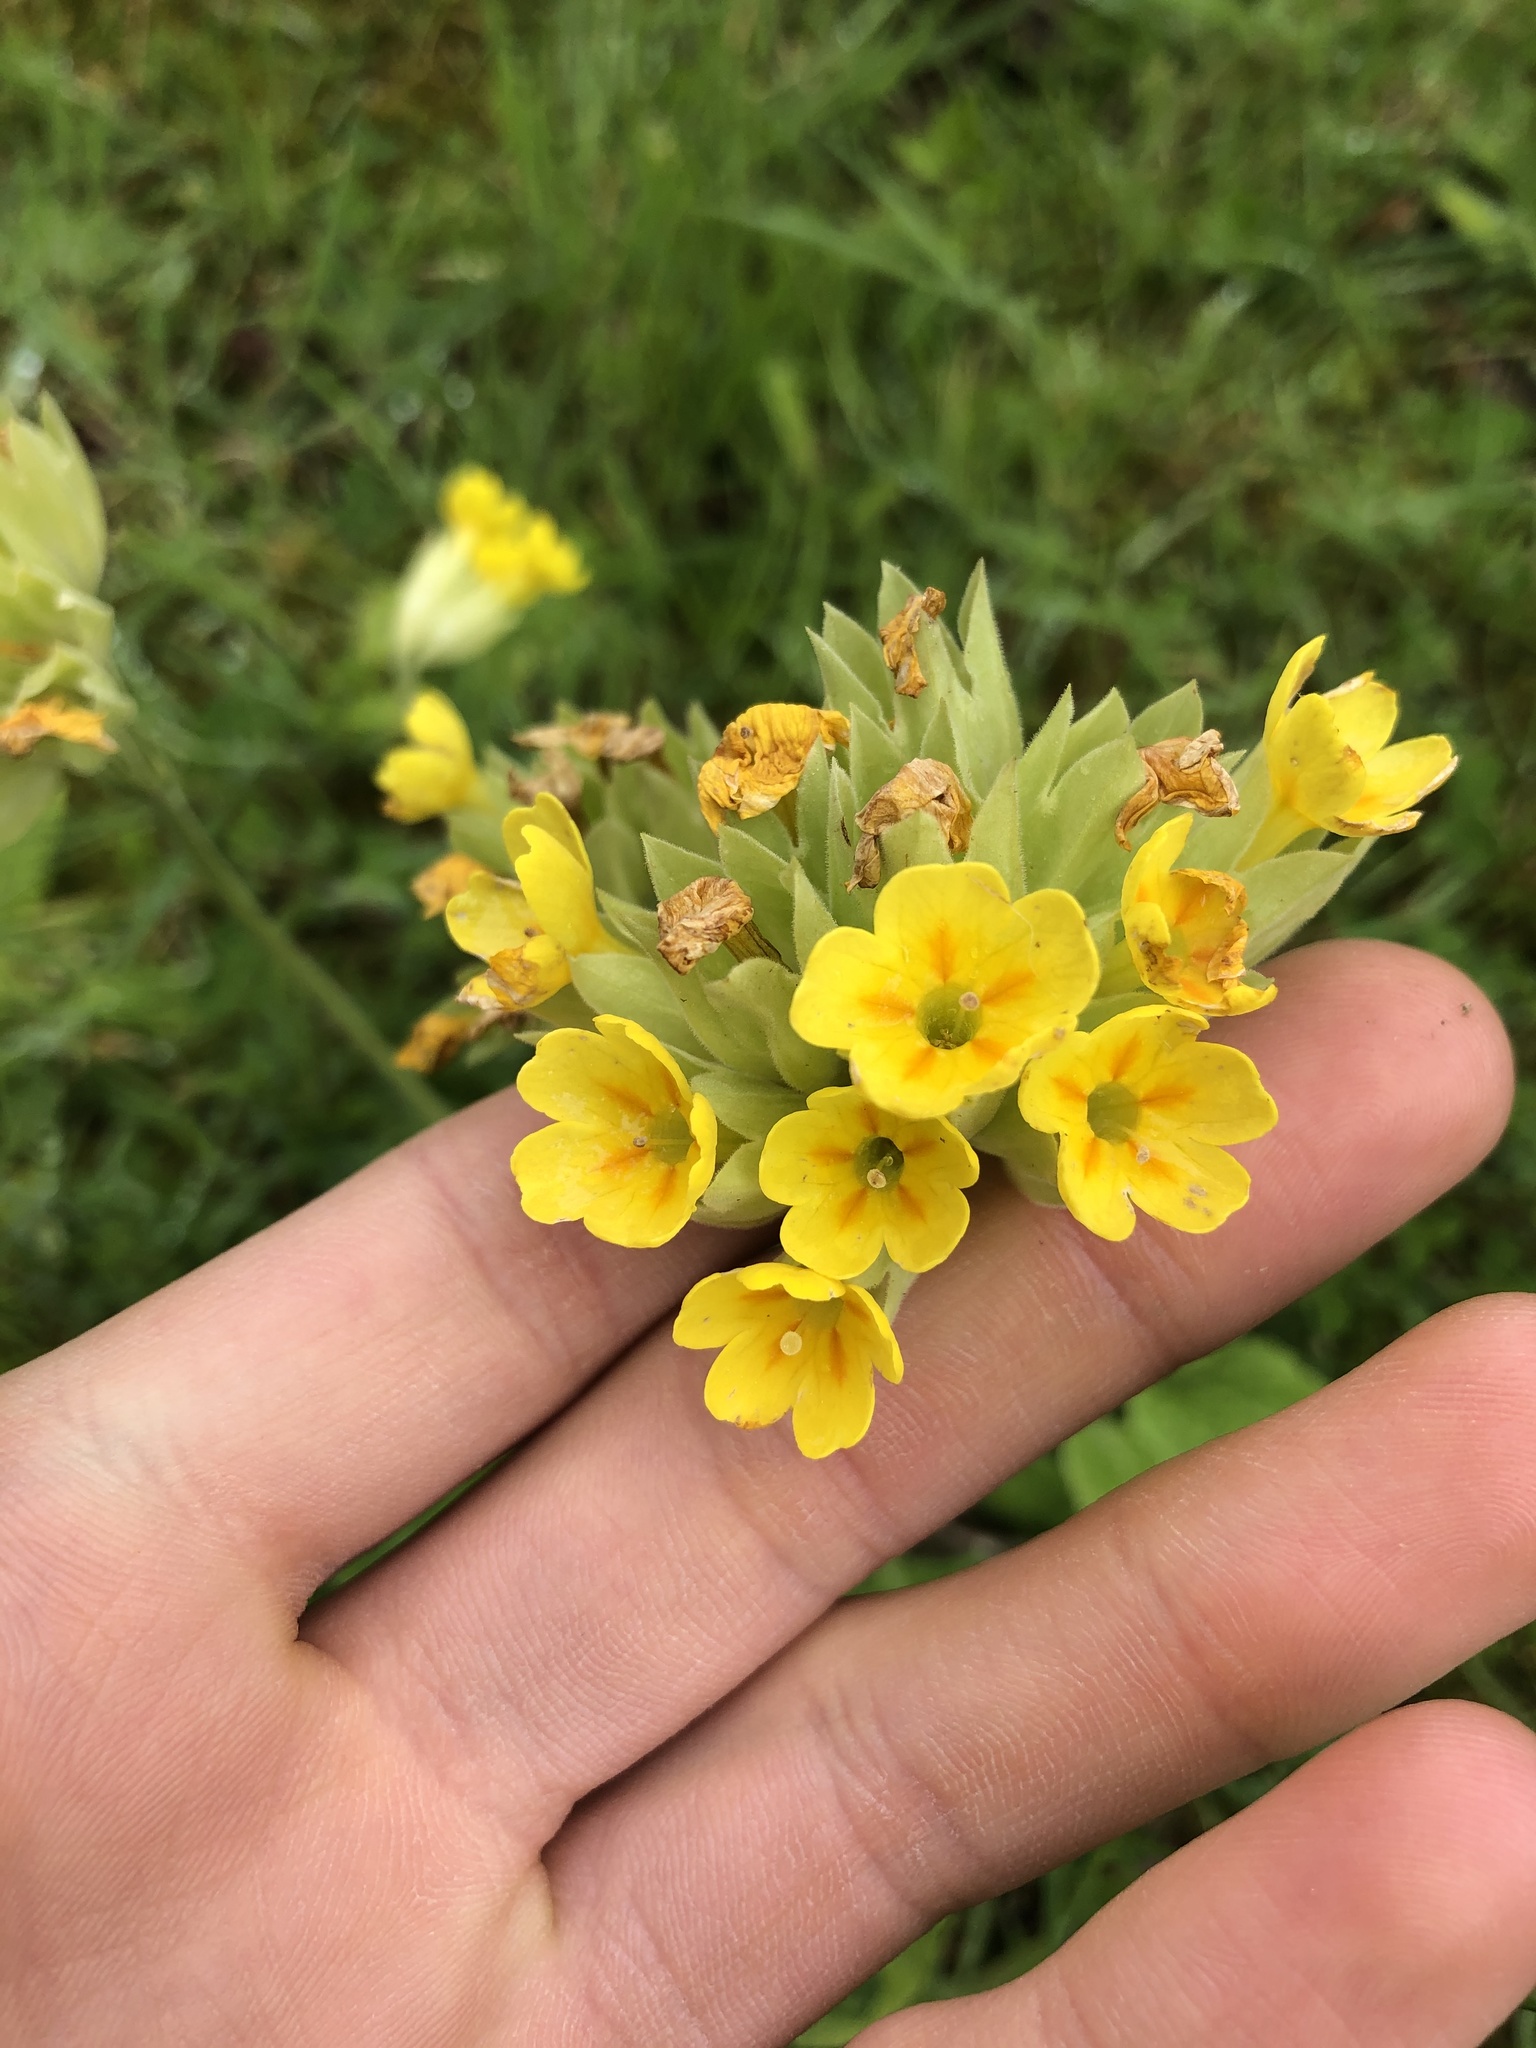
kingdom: Plantae
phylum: Tracheophyta
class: Magnoliopsida
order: Ericales
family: Primulaceae
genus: Primula
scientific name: Primula veris
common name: Cowslip
